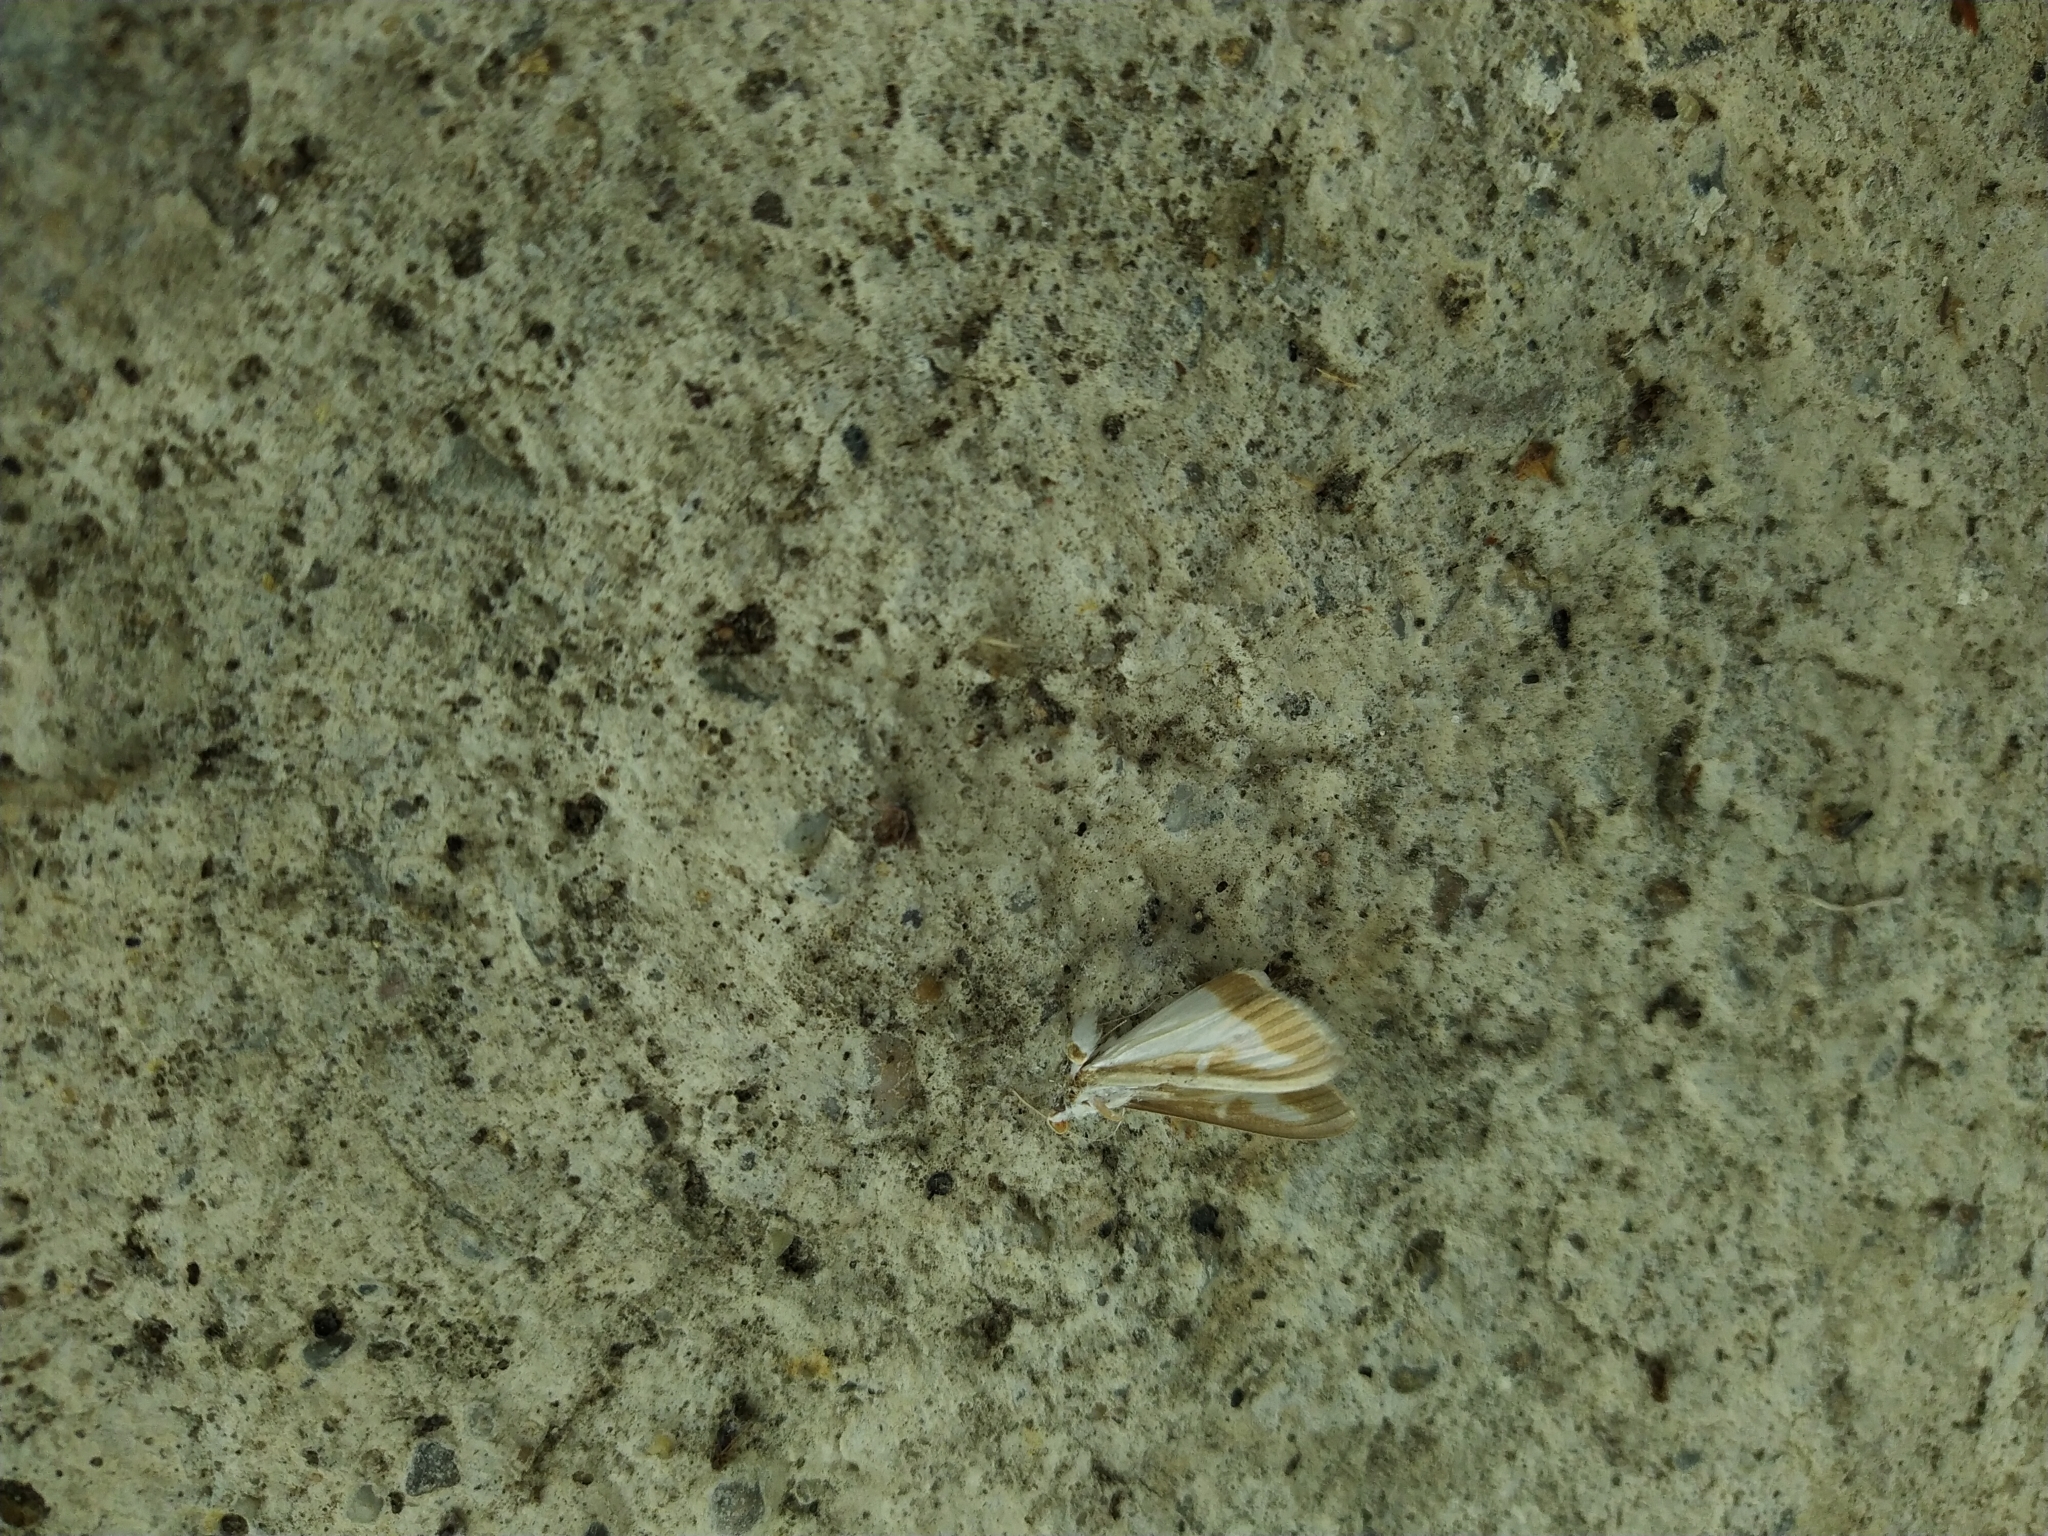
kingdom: Animalia
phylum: Arthropoda
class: Insecta
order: Lepidoptera
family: Crambidae
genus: Cydalima
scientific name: Cydalima perspectalis
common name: Box tree moth
